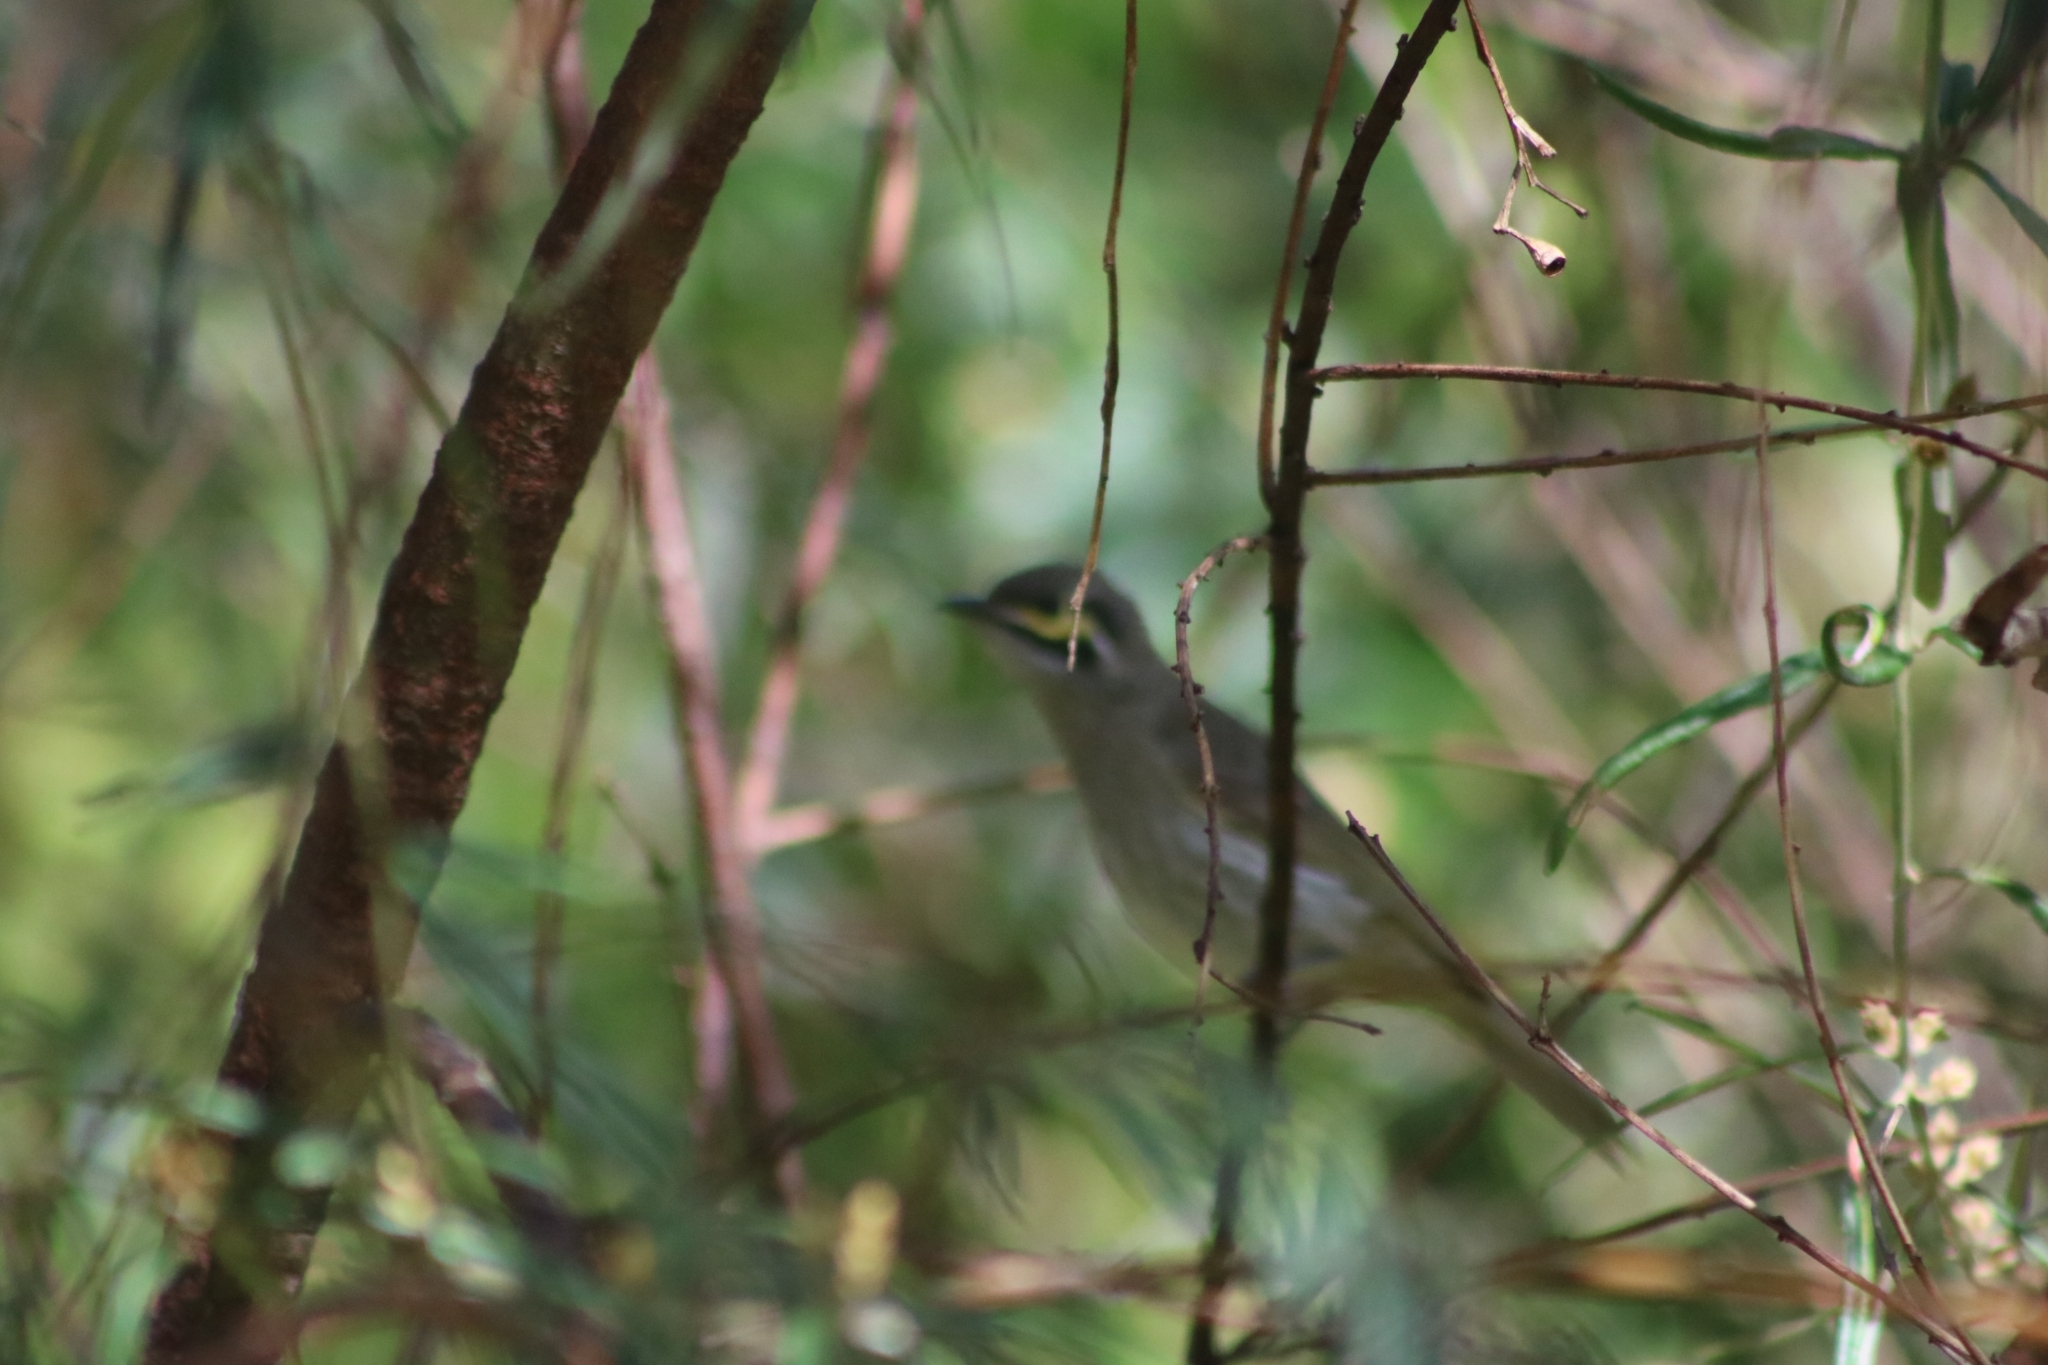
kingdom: Animalia
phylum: Chordata
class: Aves
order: Passeriformes
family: Meliphagidae
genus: Caligavis
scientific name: Caligavis chrysops
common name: Yellow-faced honeyeater
